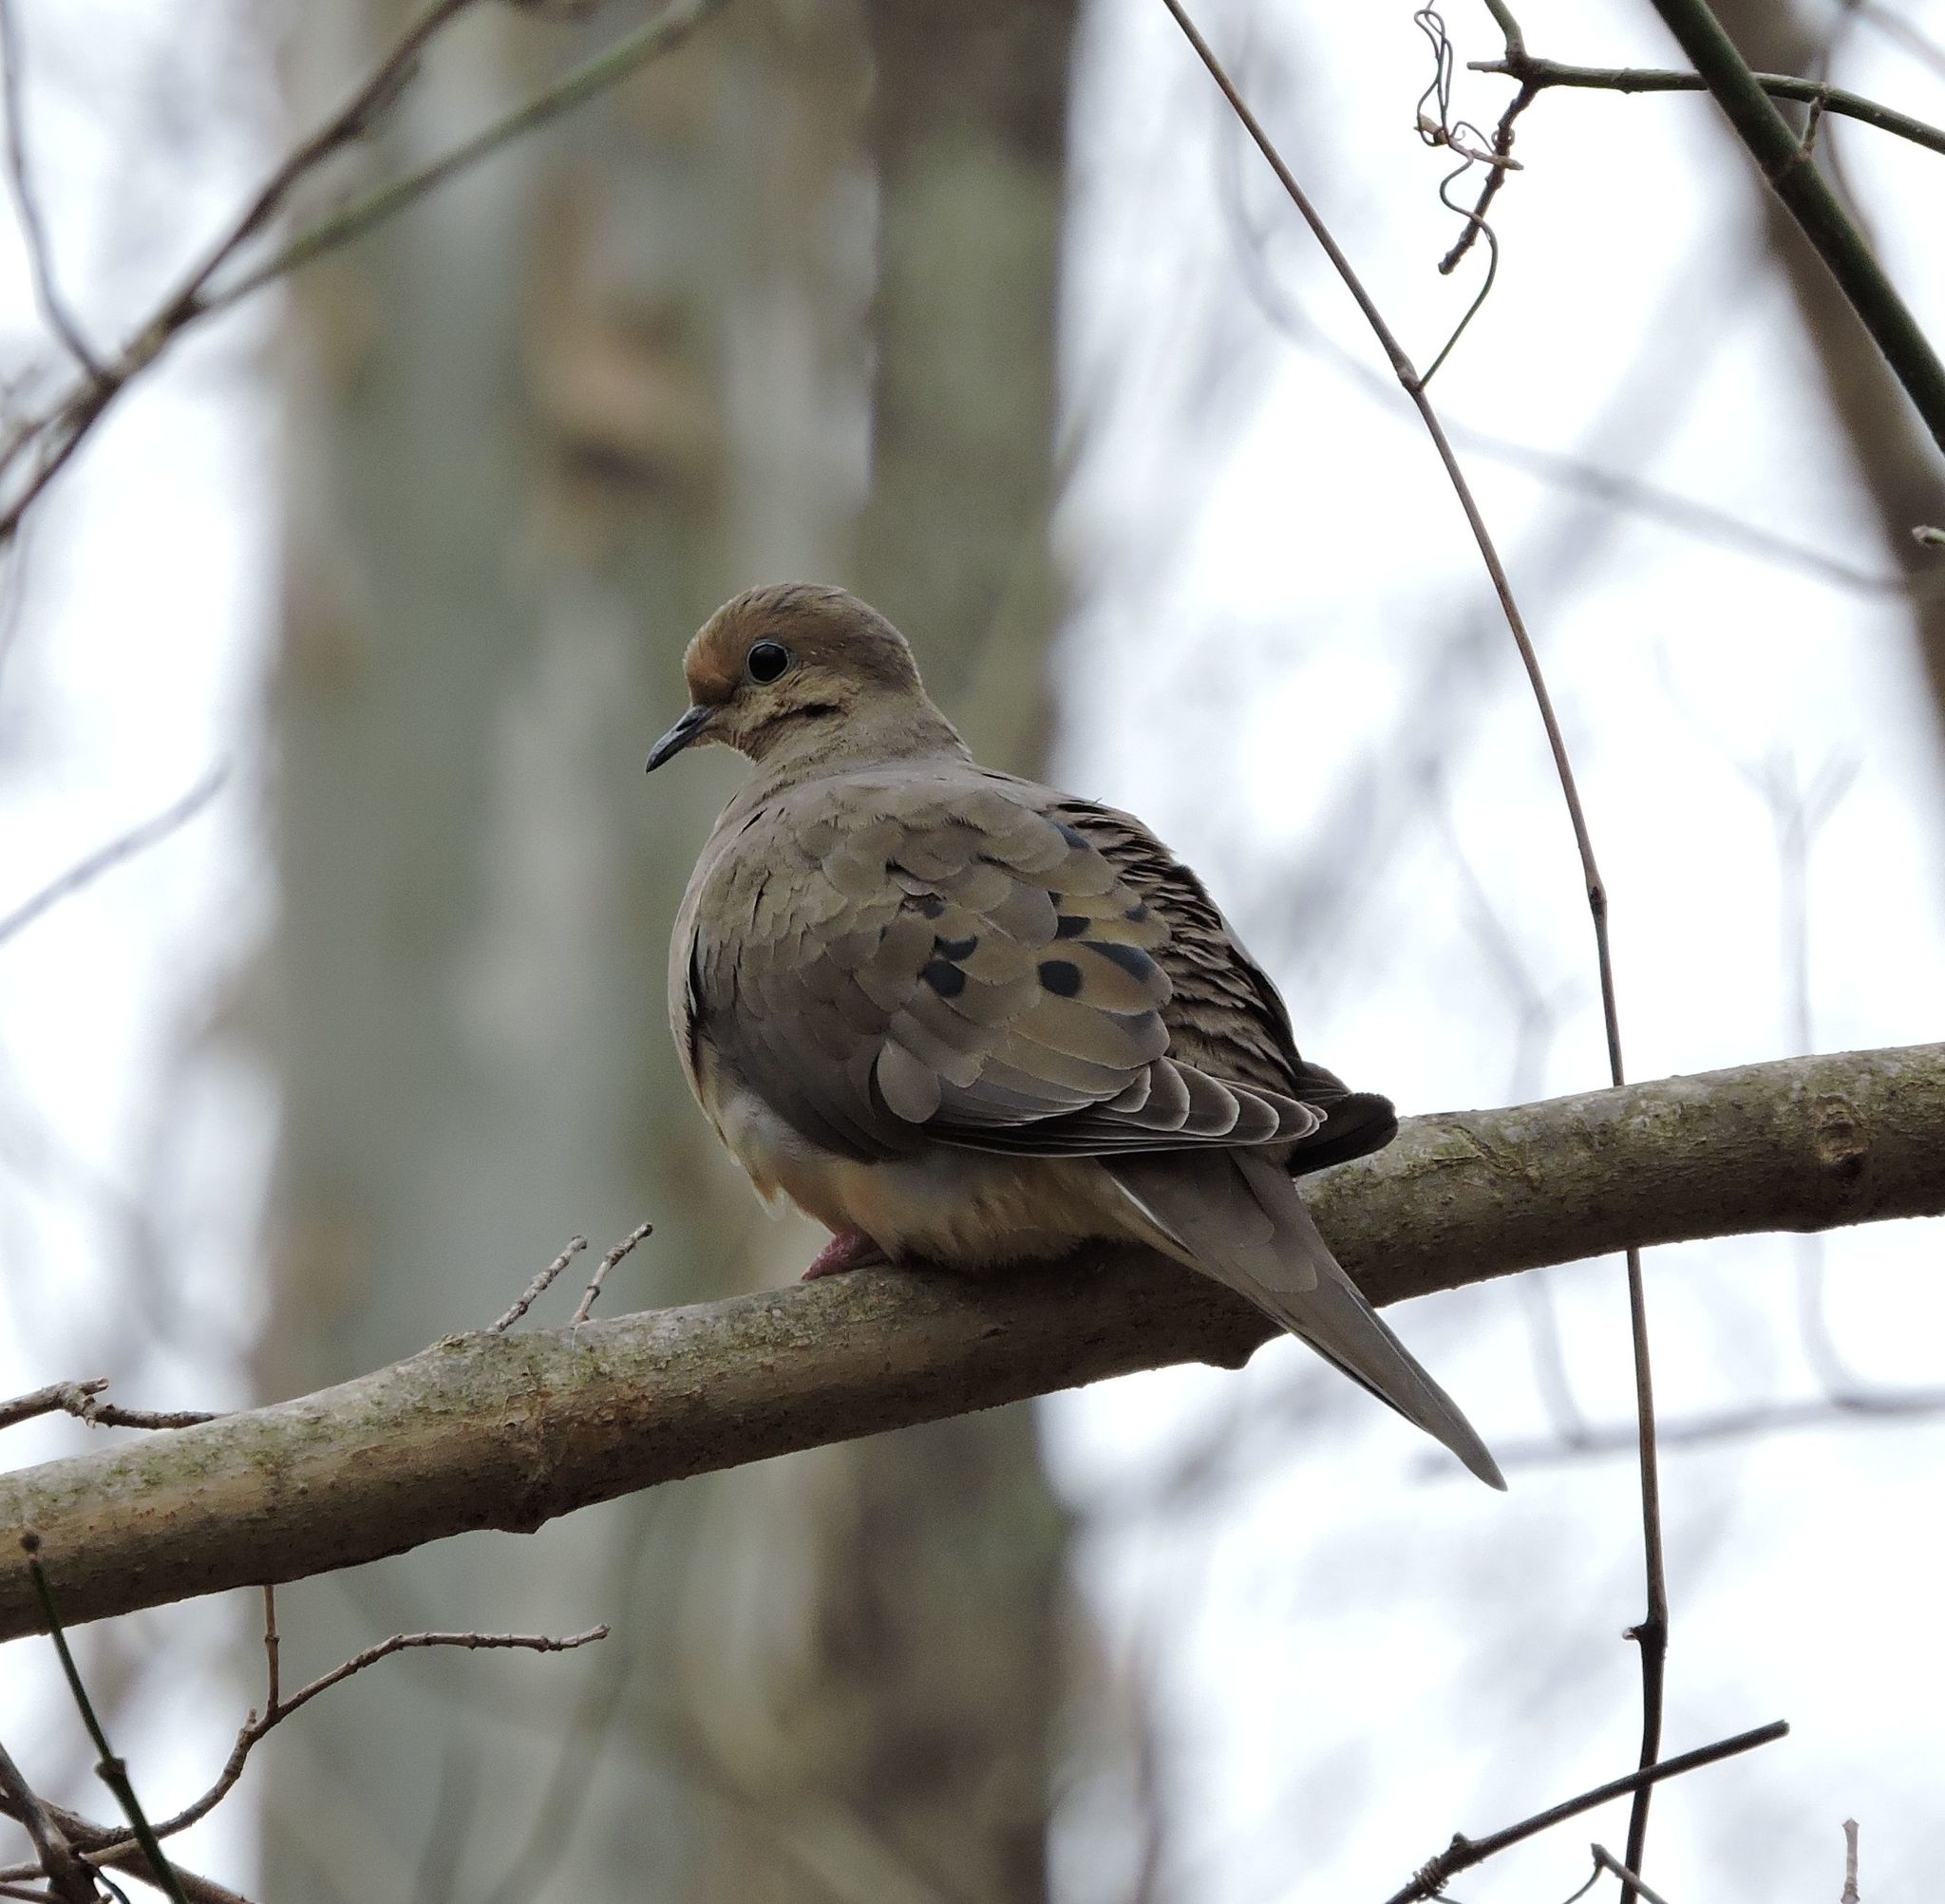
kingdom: Animalia
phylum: Chordata
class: Aves
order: Columbiformes
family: Columbidae
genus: Zenaida
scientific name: Zenaida macroura
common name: Mourning dove
